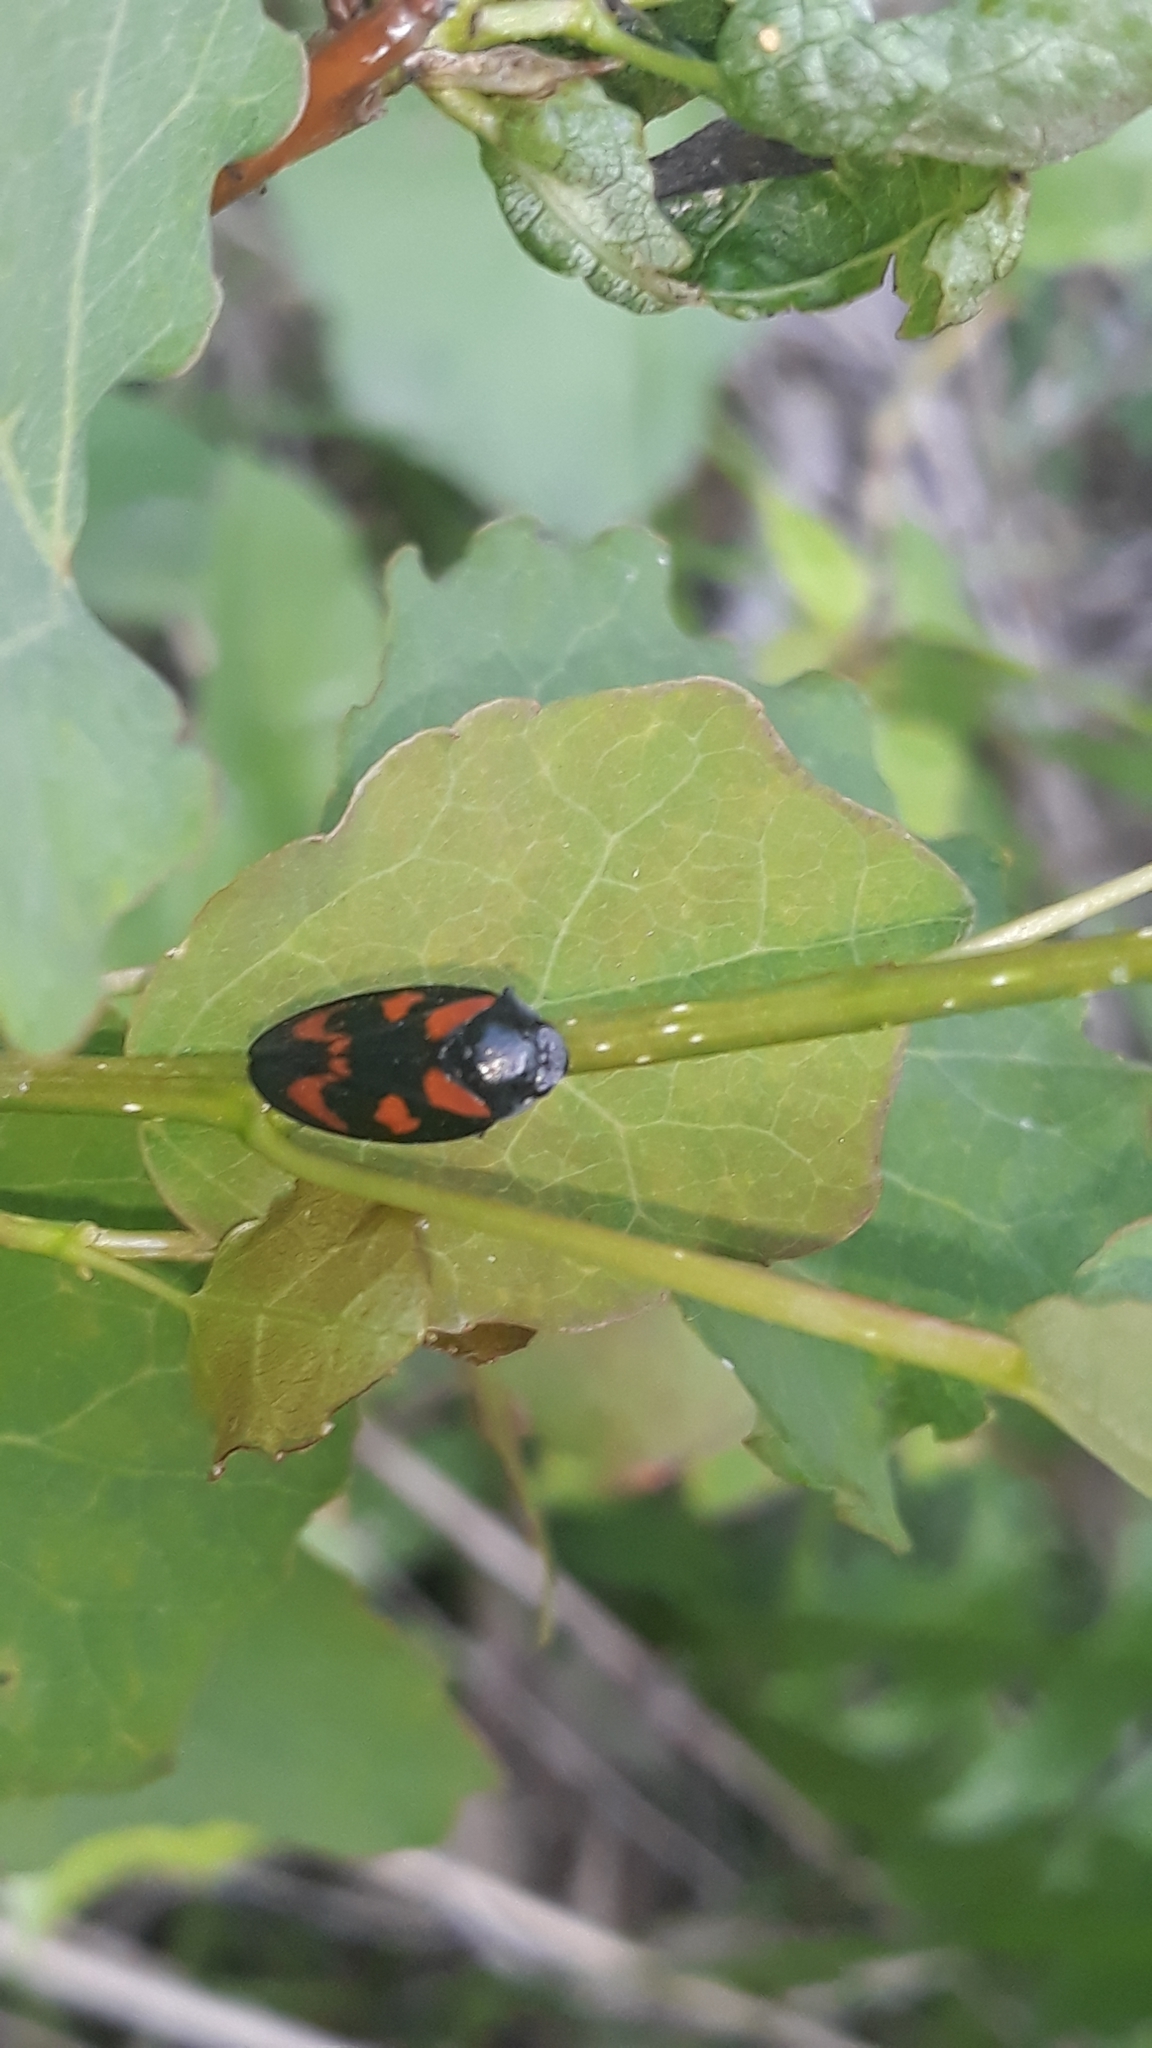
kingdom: Animalia
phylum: Arthropoda
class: Insecta
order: Hemiptera
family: Cercopidae
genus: Cercopis
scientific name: Cercopis vulnerata
